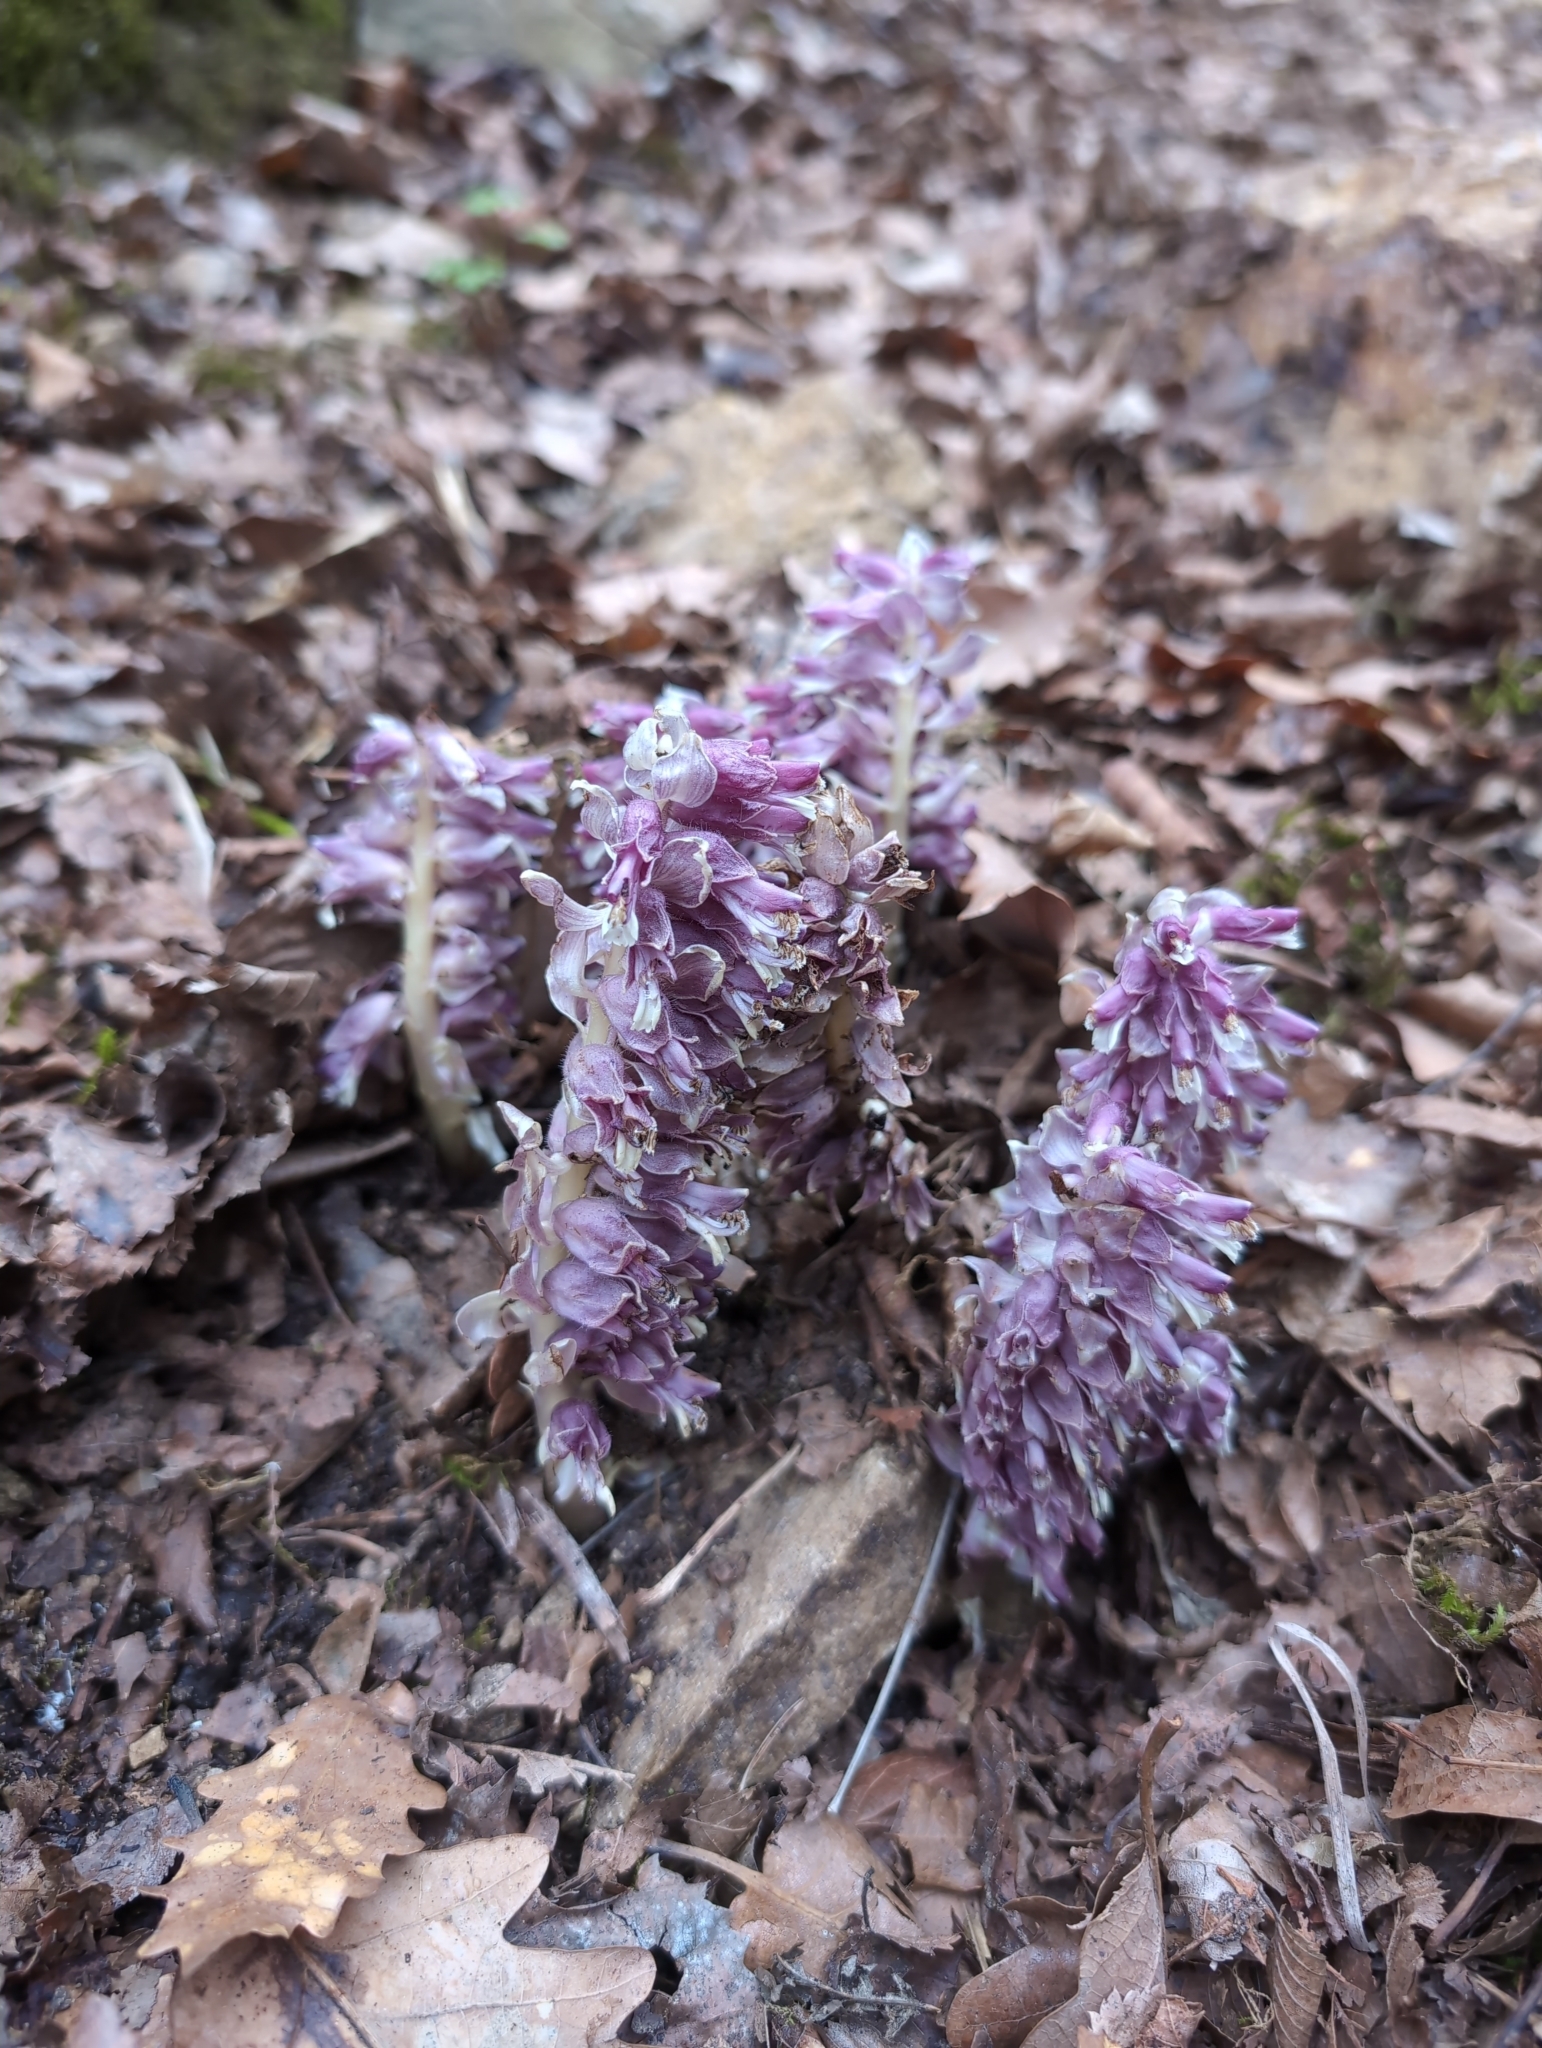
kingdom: Plantae
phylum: Tracheophyta
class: Magnoliopsida
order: Lamiales
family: Orobanchaceae
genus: Lathraea
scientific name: Lathraea squamaria
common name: Toothwort
